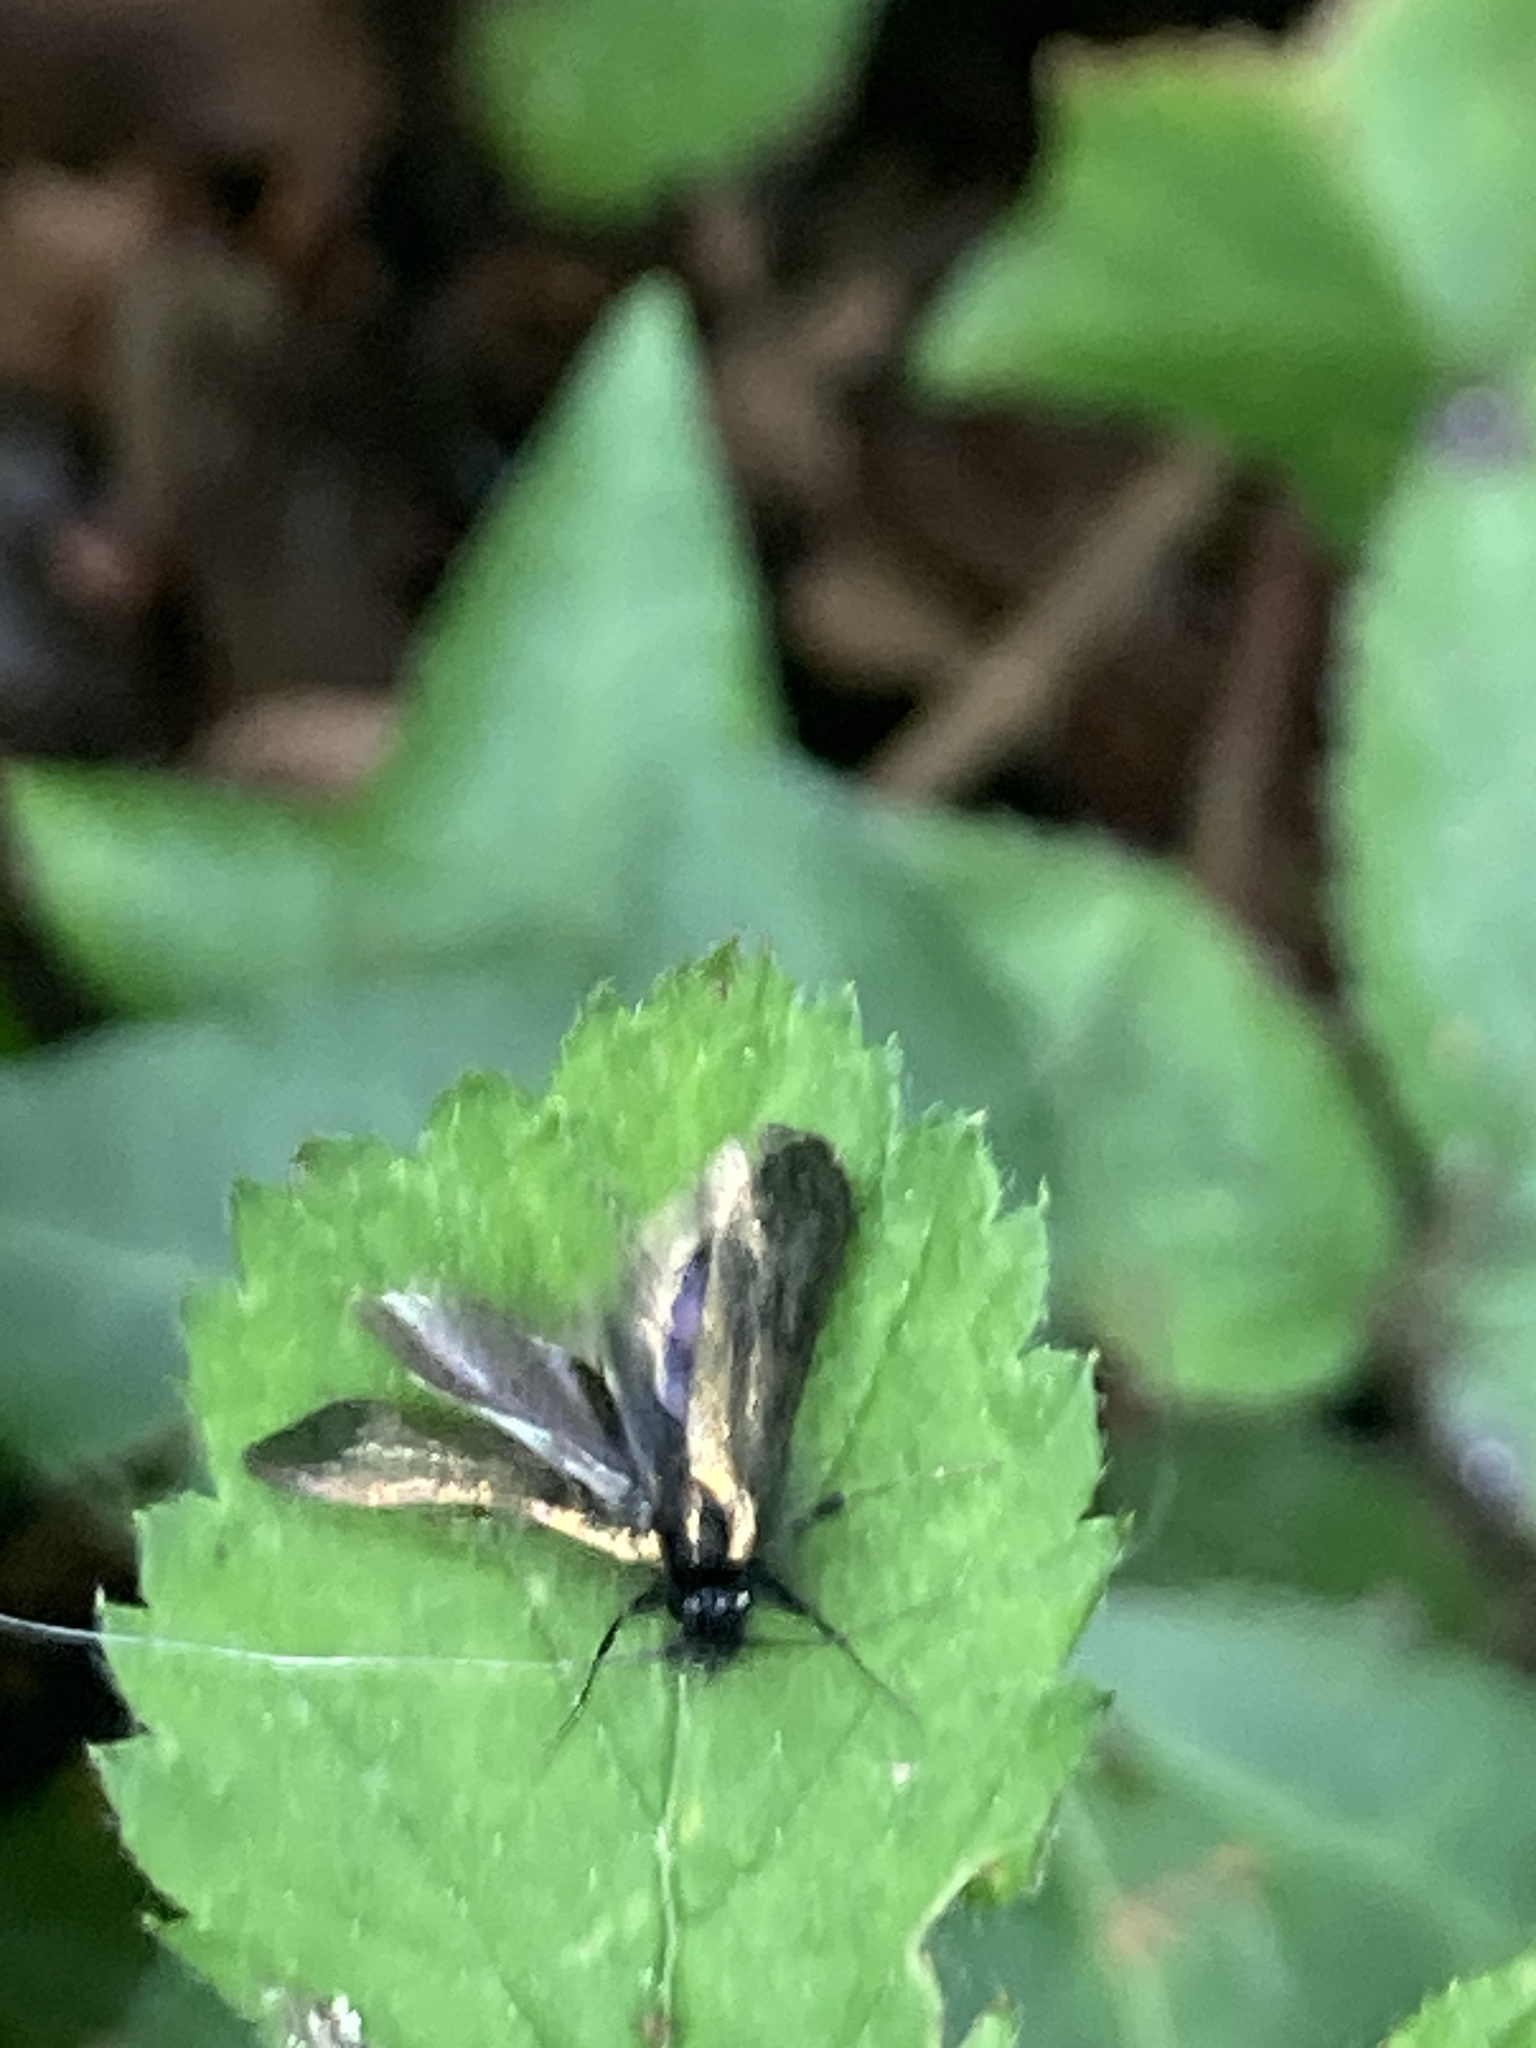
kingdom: Animalia
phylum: Arthropoda
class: Insecta
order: Lepidoptera
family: Adelidae
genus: Adela
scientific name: Adela viridella
